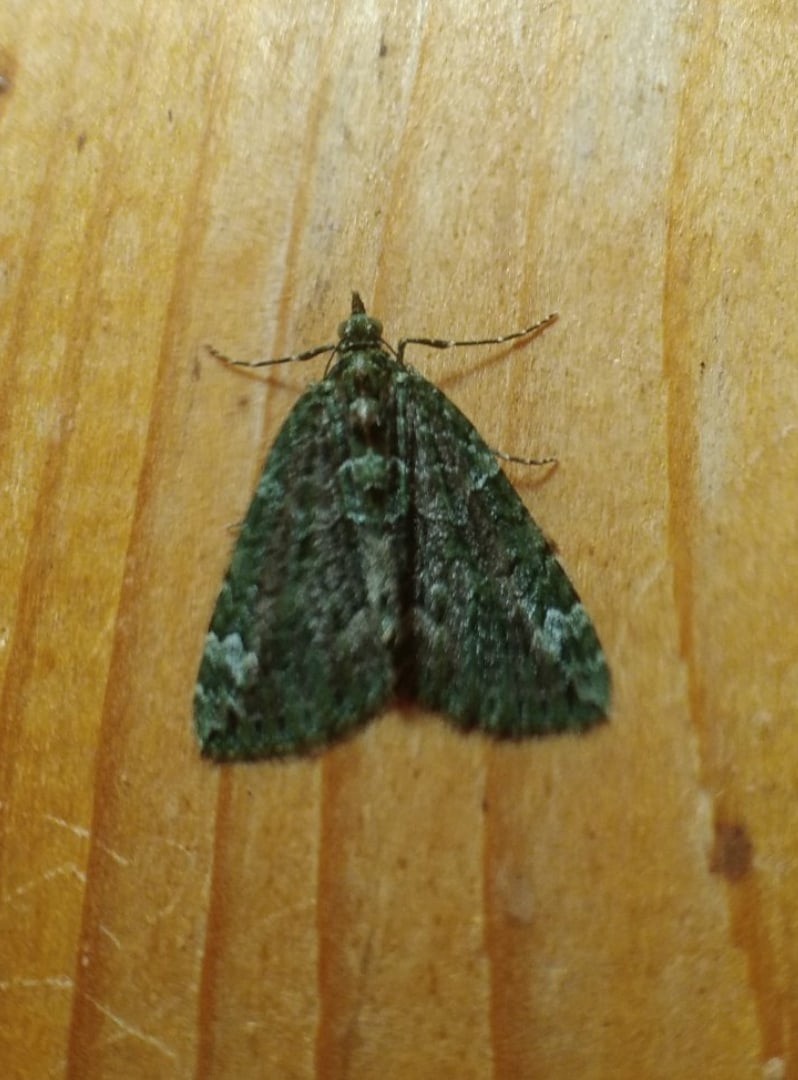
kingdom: Animalia
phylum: Arthropoda
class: Insecta
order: Lepidoptera
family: Geometridae
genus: Chloroclysta
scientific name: Chloroclysta siterata
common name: Red-green carpet
